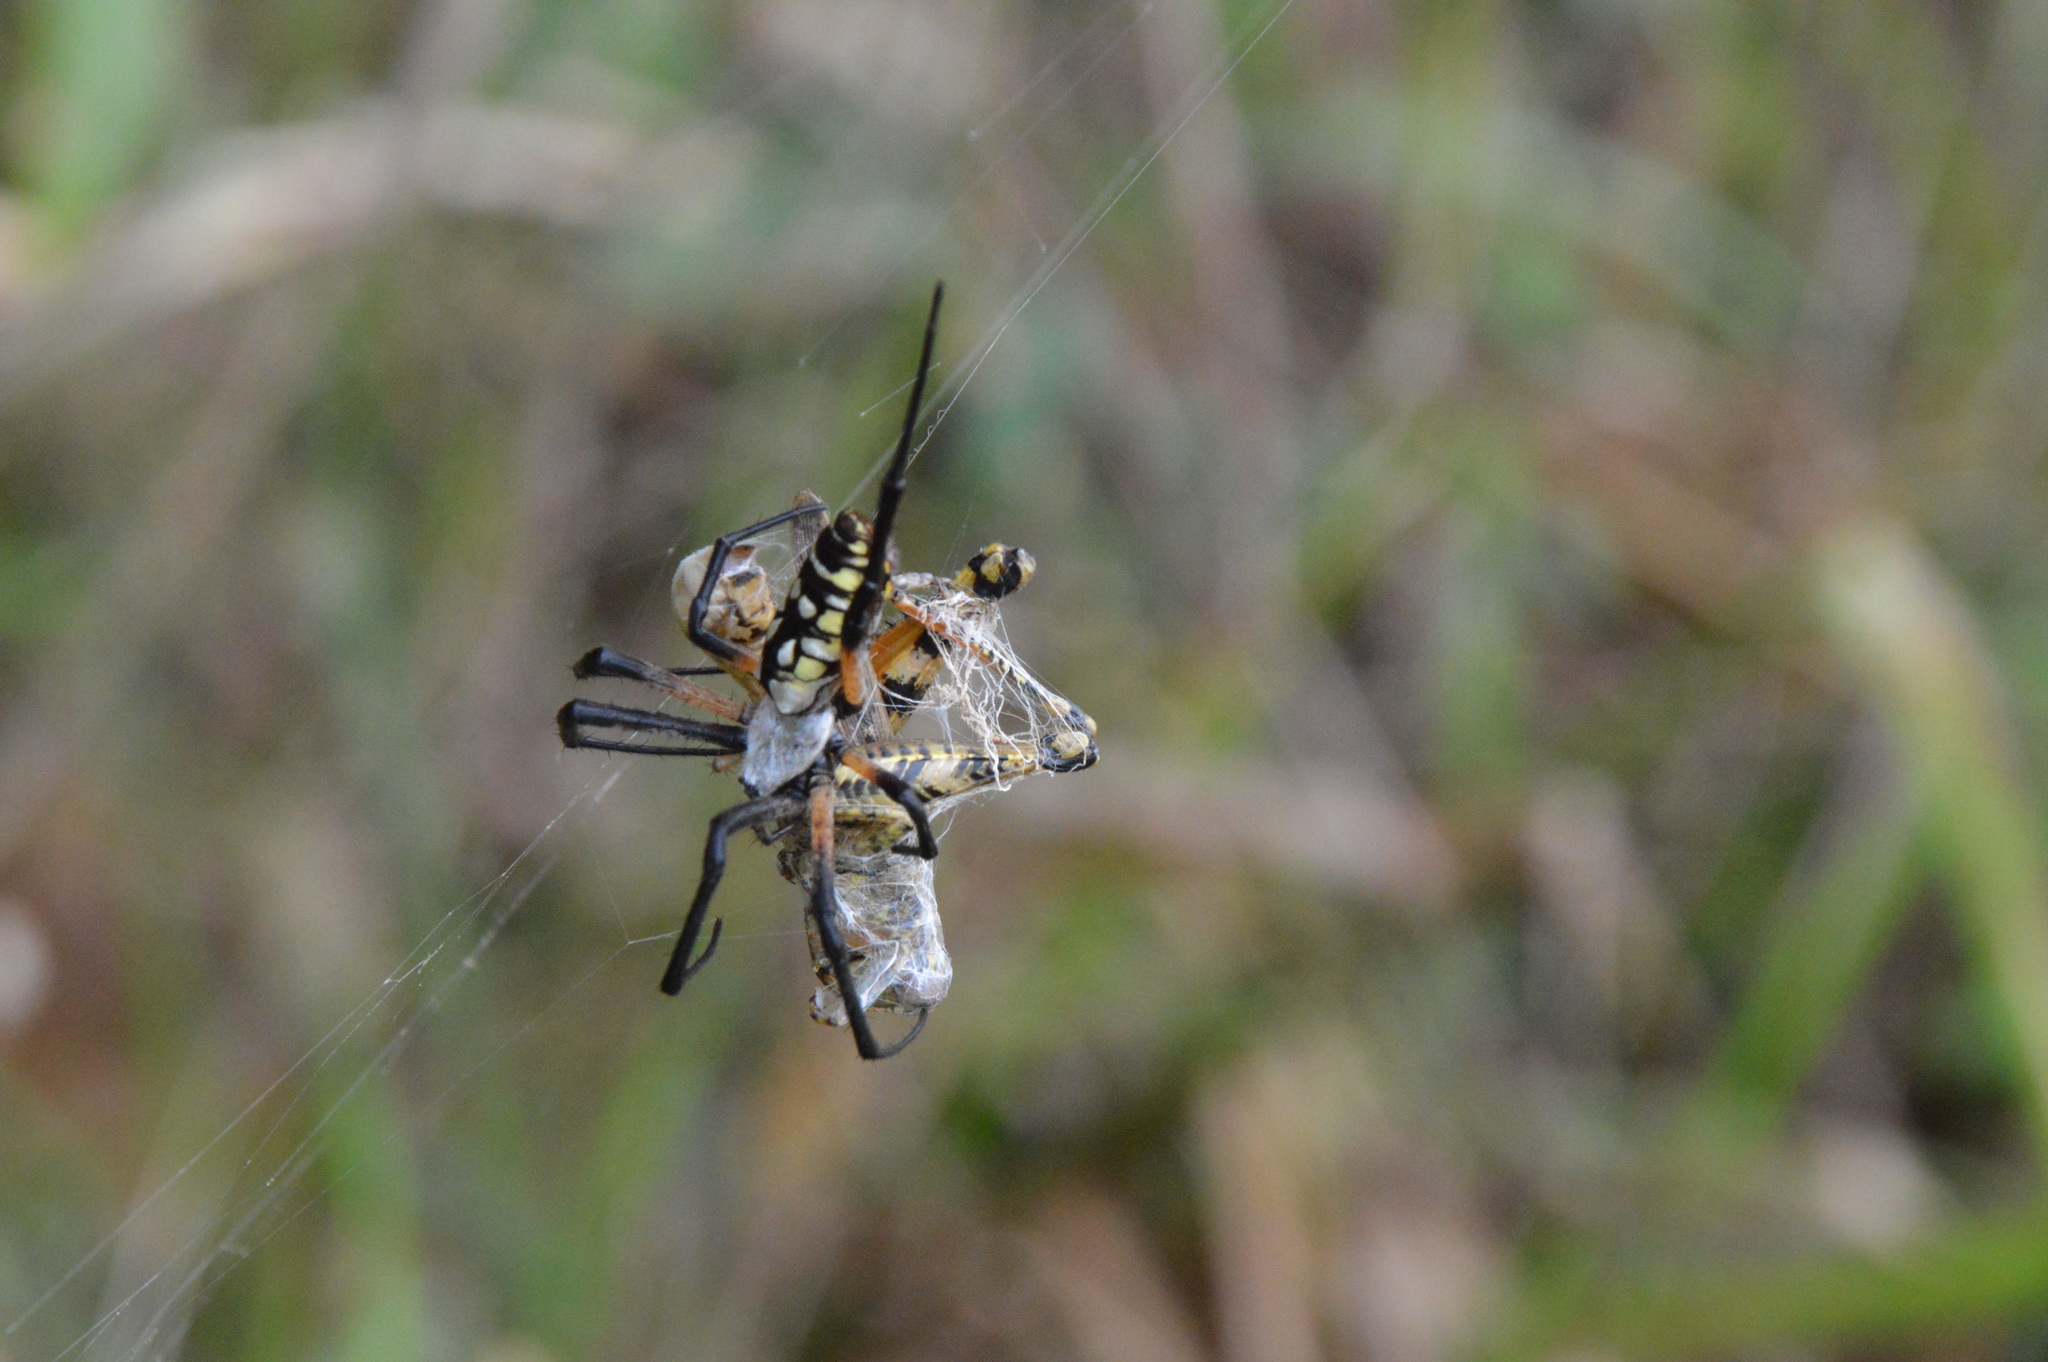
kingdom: Animalia
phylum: Arthropoda
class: Arachnida
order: Araneae
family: Araneidae
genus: Argiope
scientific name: Argiope aurantia
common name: Orb weavers
